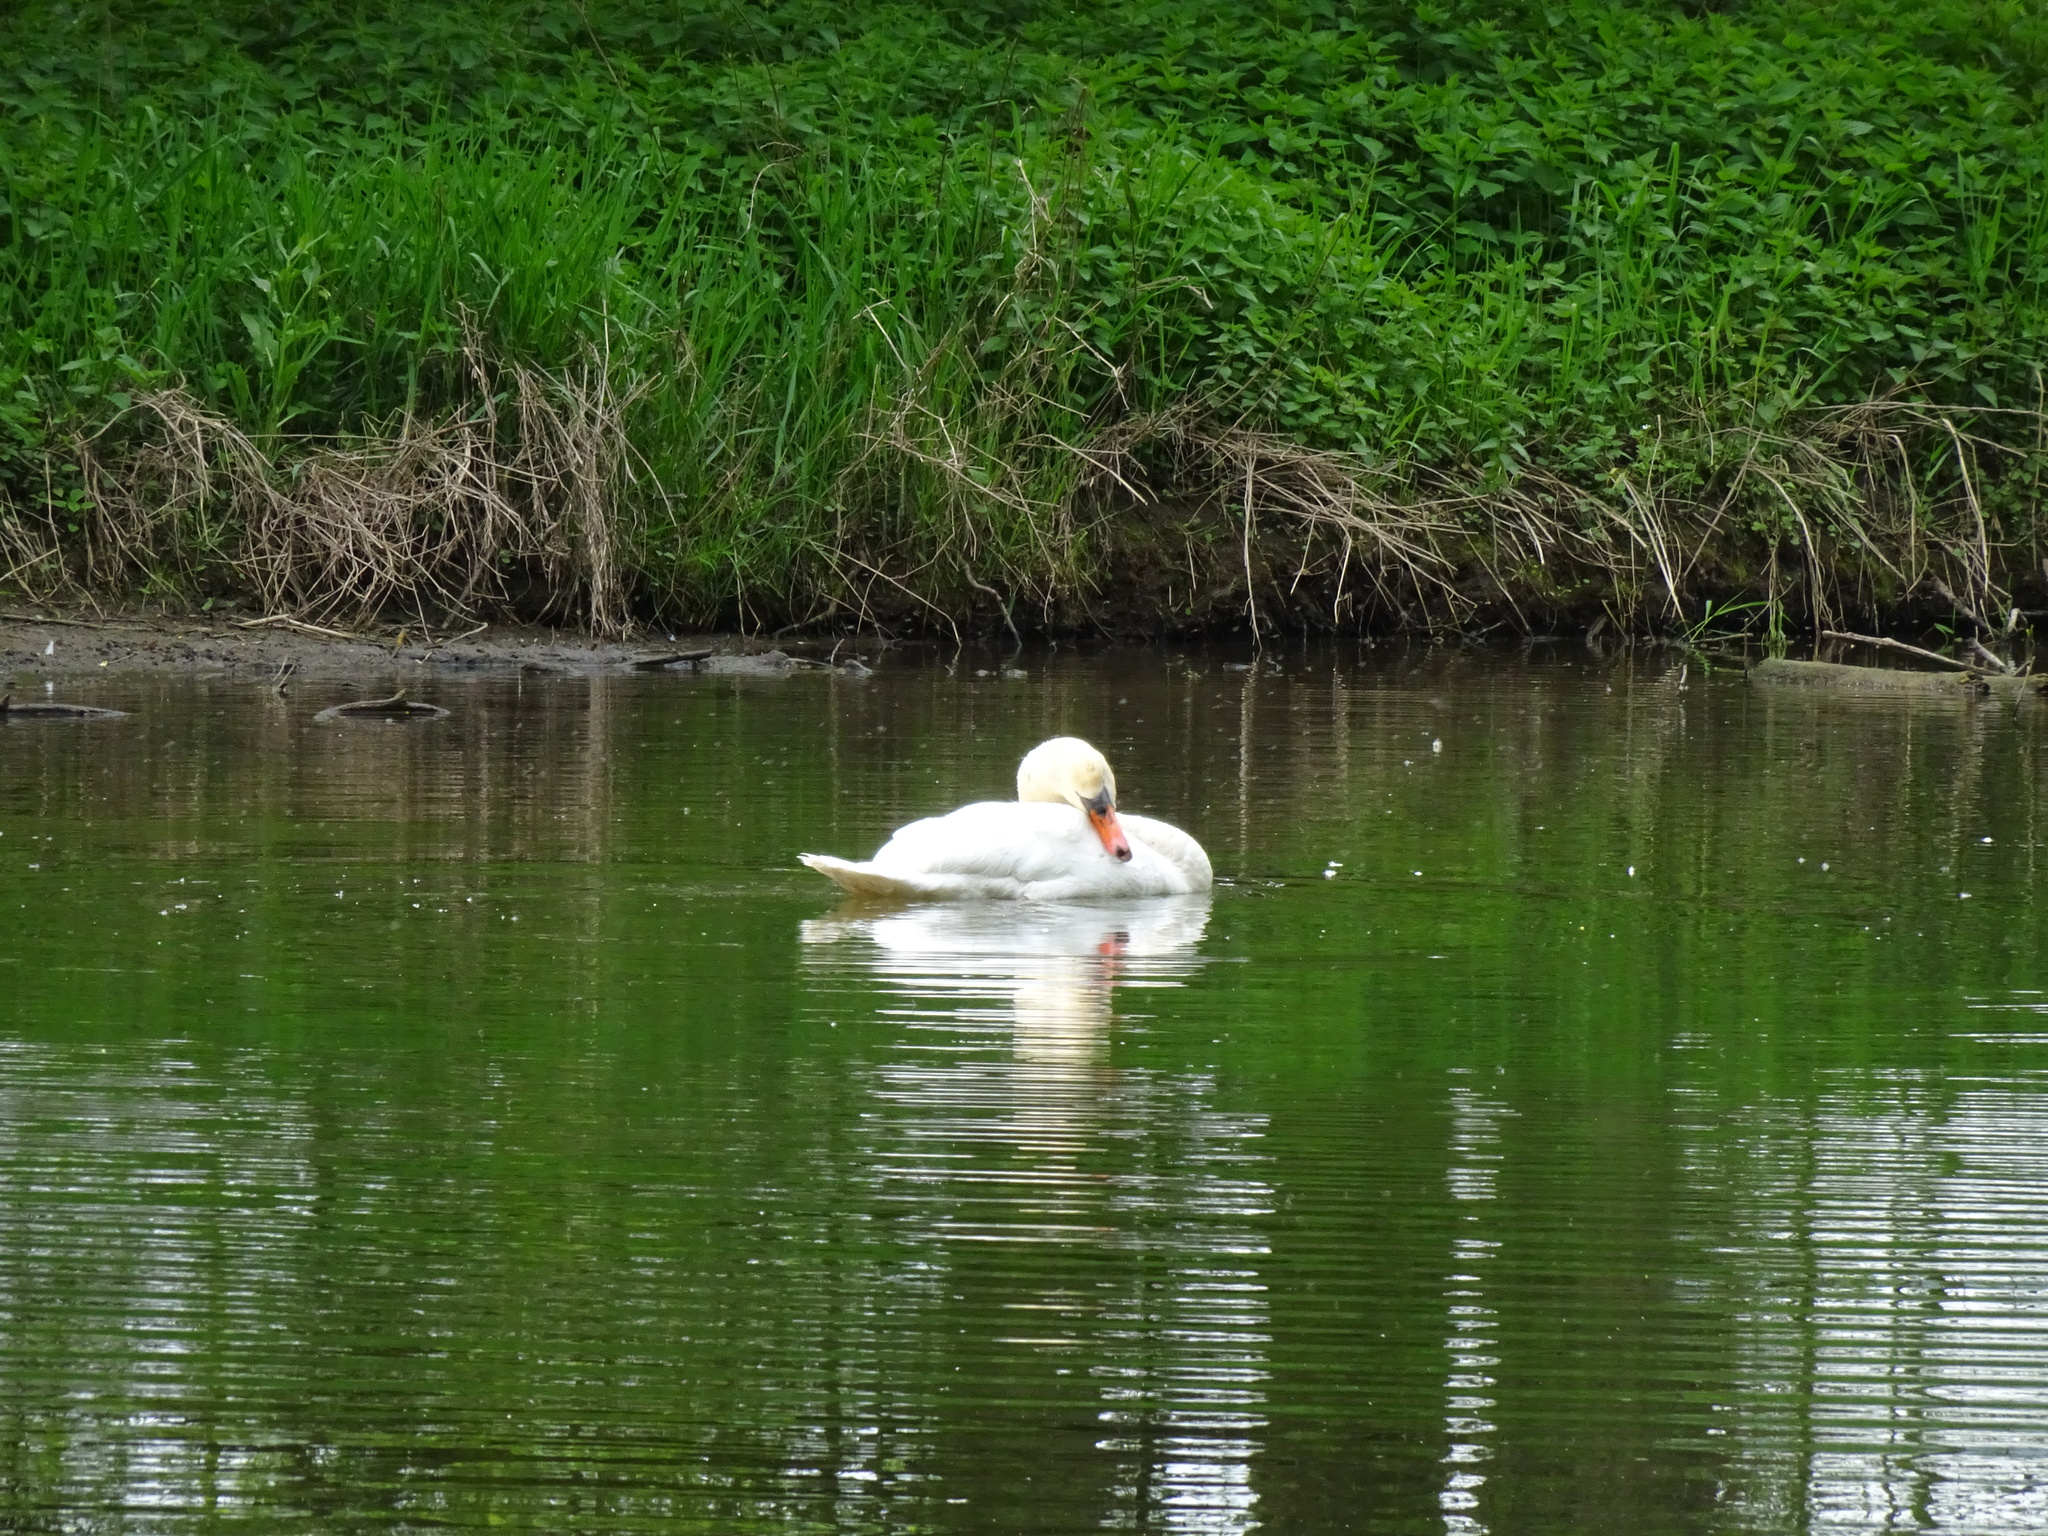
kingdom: Animalia
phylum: Chordata
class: Aves
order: Anseriformes
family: Anatidae
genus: Cygnus
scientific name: Cygnus olor
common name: Mute swan
